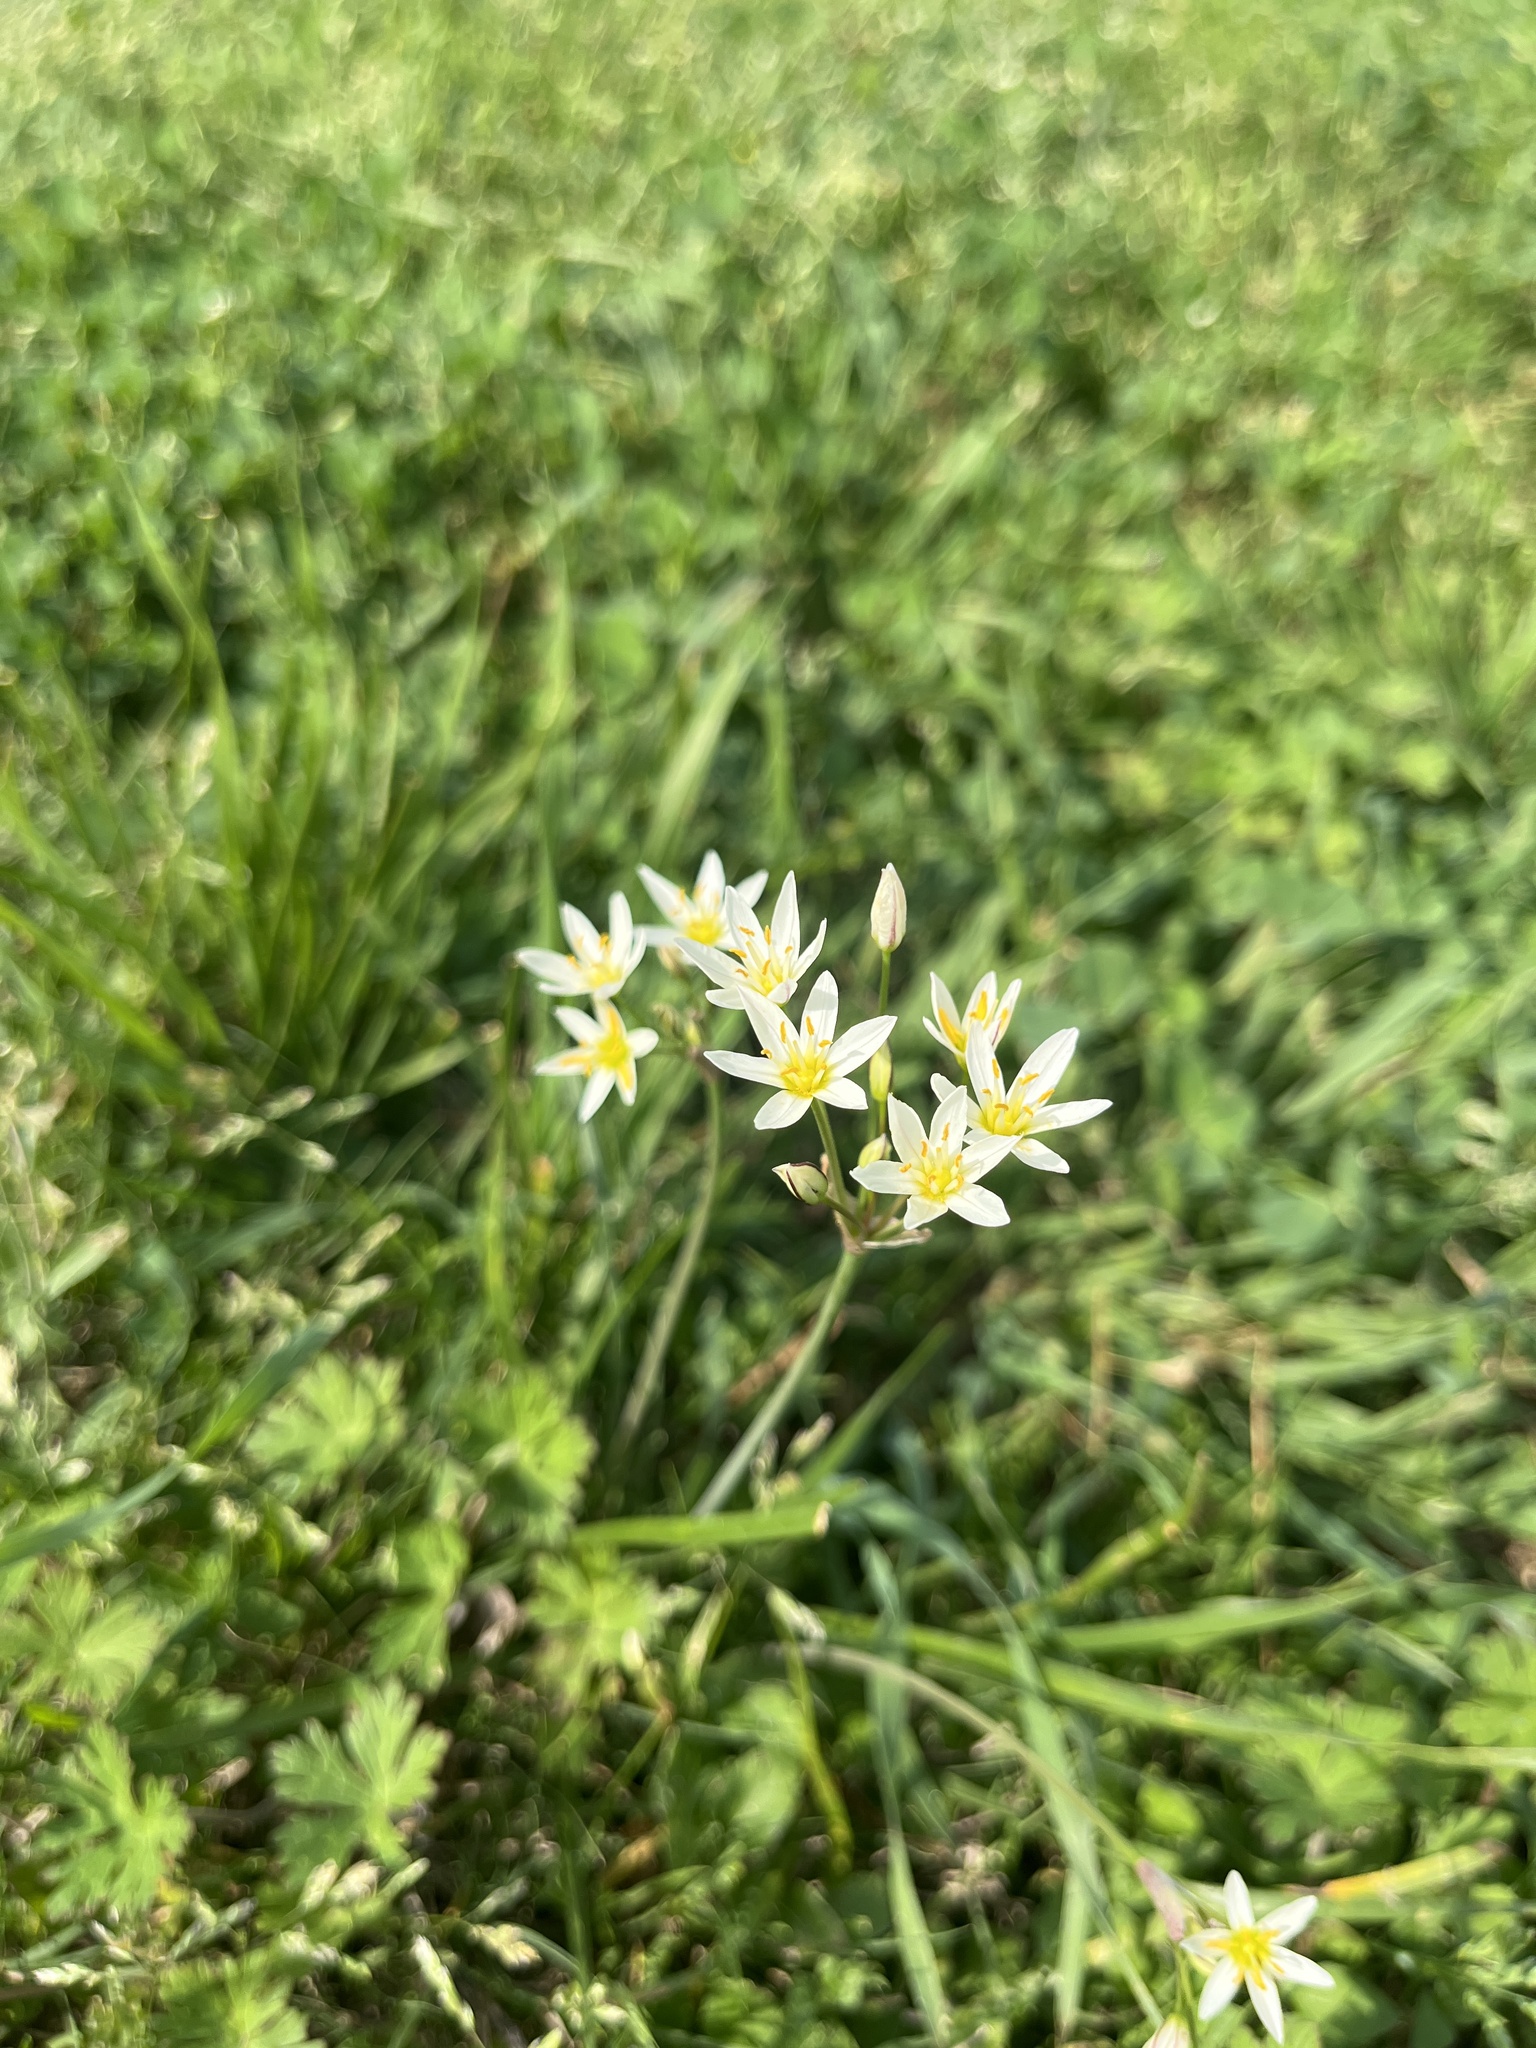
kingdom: Plantae
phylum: Tracheophyta
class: Liliopsida
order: Asparagales
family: Amaryllidaceae
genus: Nothoscordum
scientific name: Nothoscordum bivalve
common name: Crow-poison
